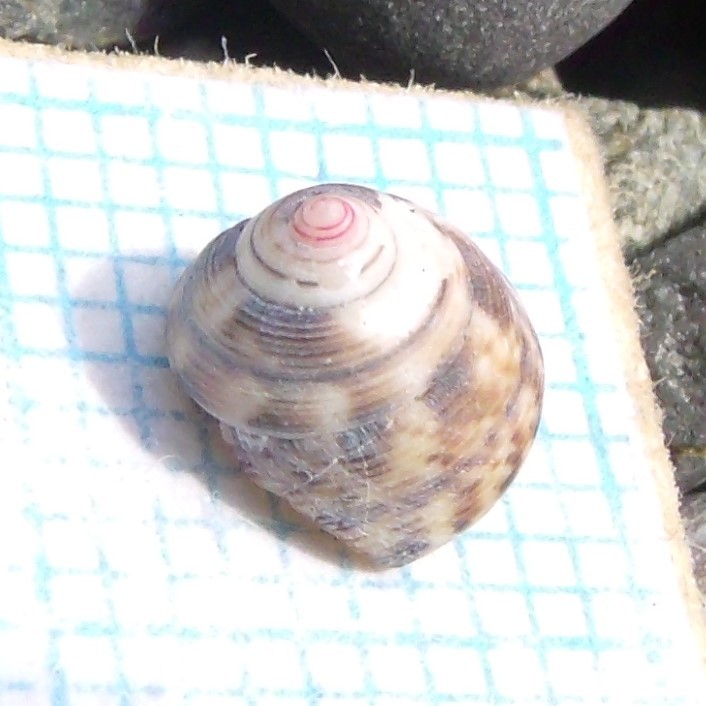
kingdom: Animalia
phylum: Mollusca
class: Gastropoda
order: Trochida
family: Trochidae
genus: Coelotrochus
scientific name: Coelotrochus chathamensis
